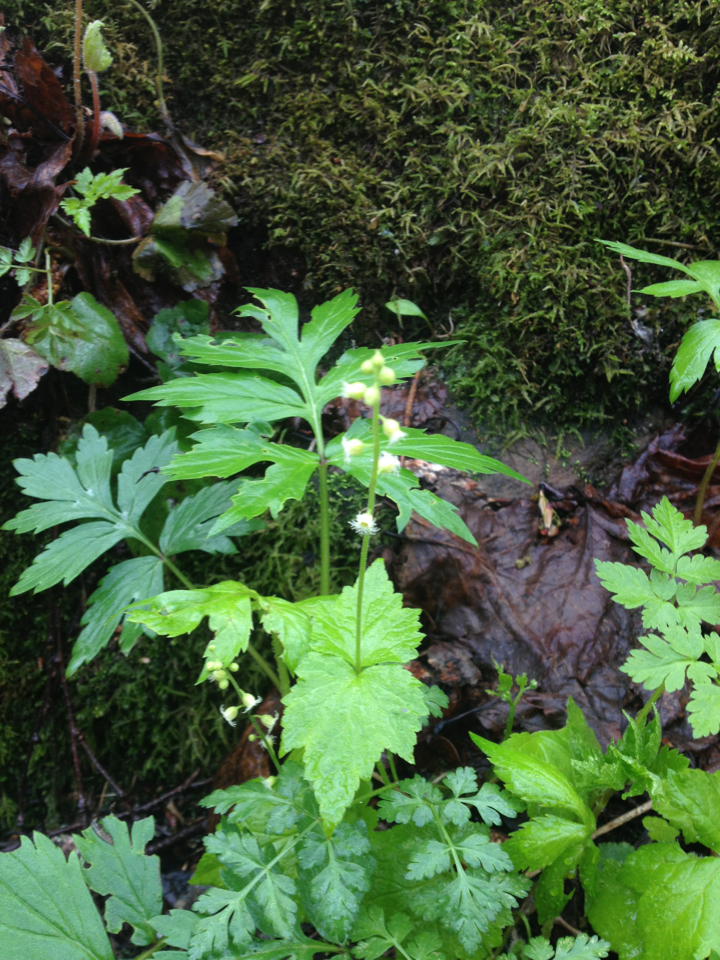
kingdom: Plantae
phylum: Tracheophyta
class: Magnoliopsida
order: Saxifragales
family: Saxifragaceae
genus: Mitella
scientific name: Mitella diphylla
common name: Coolwort
